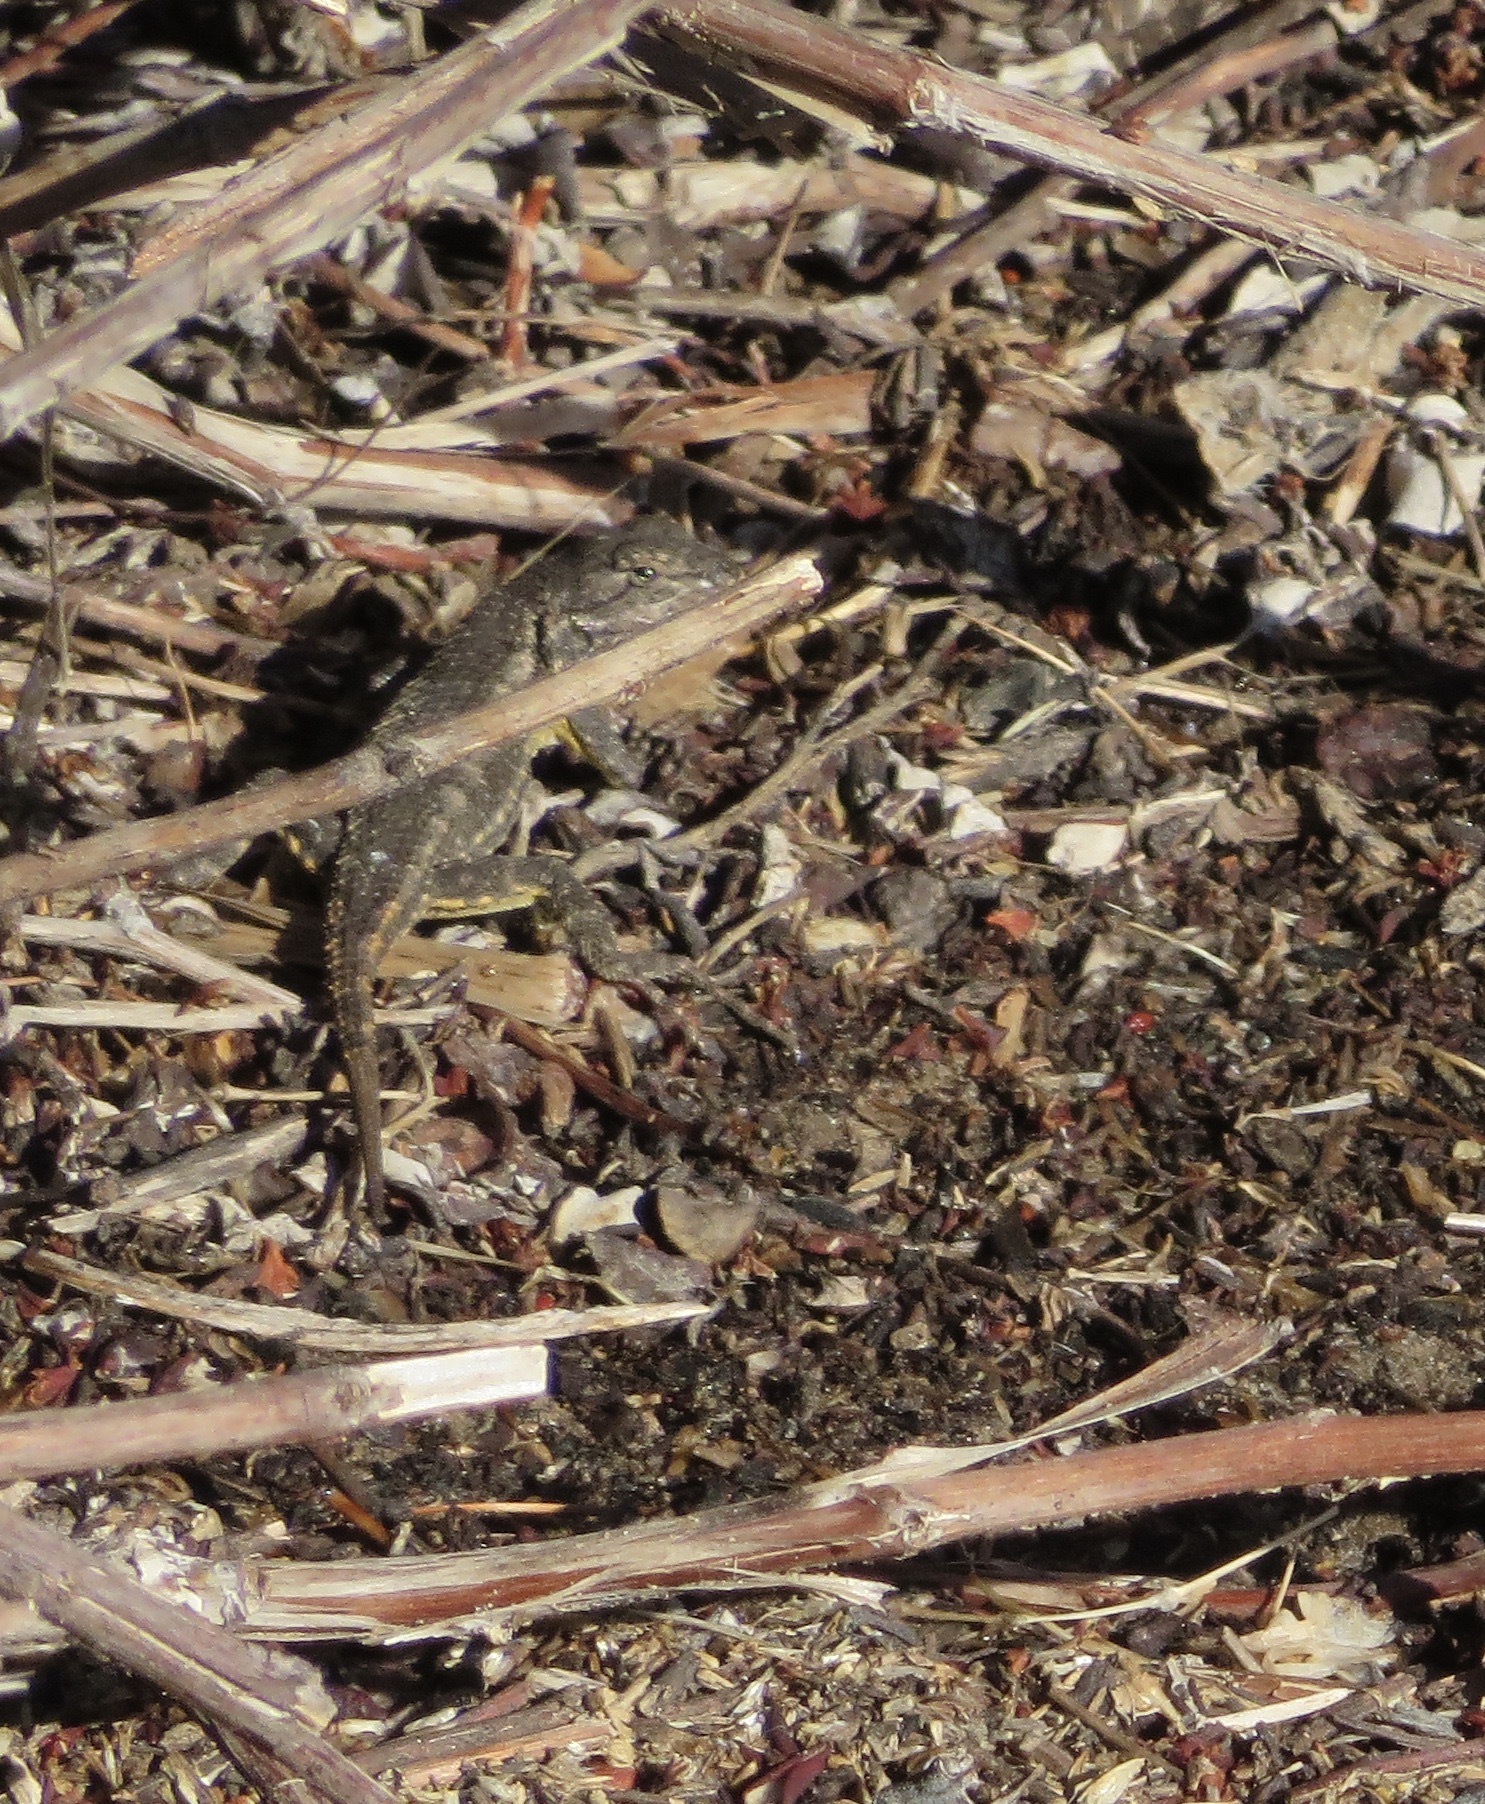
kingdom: Animalia
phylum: Chordata
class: Squamata
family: Phrynosomatidae
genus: Sceloporus
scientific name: Sceloporus occidentalis
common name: Western fence lizard
